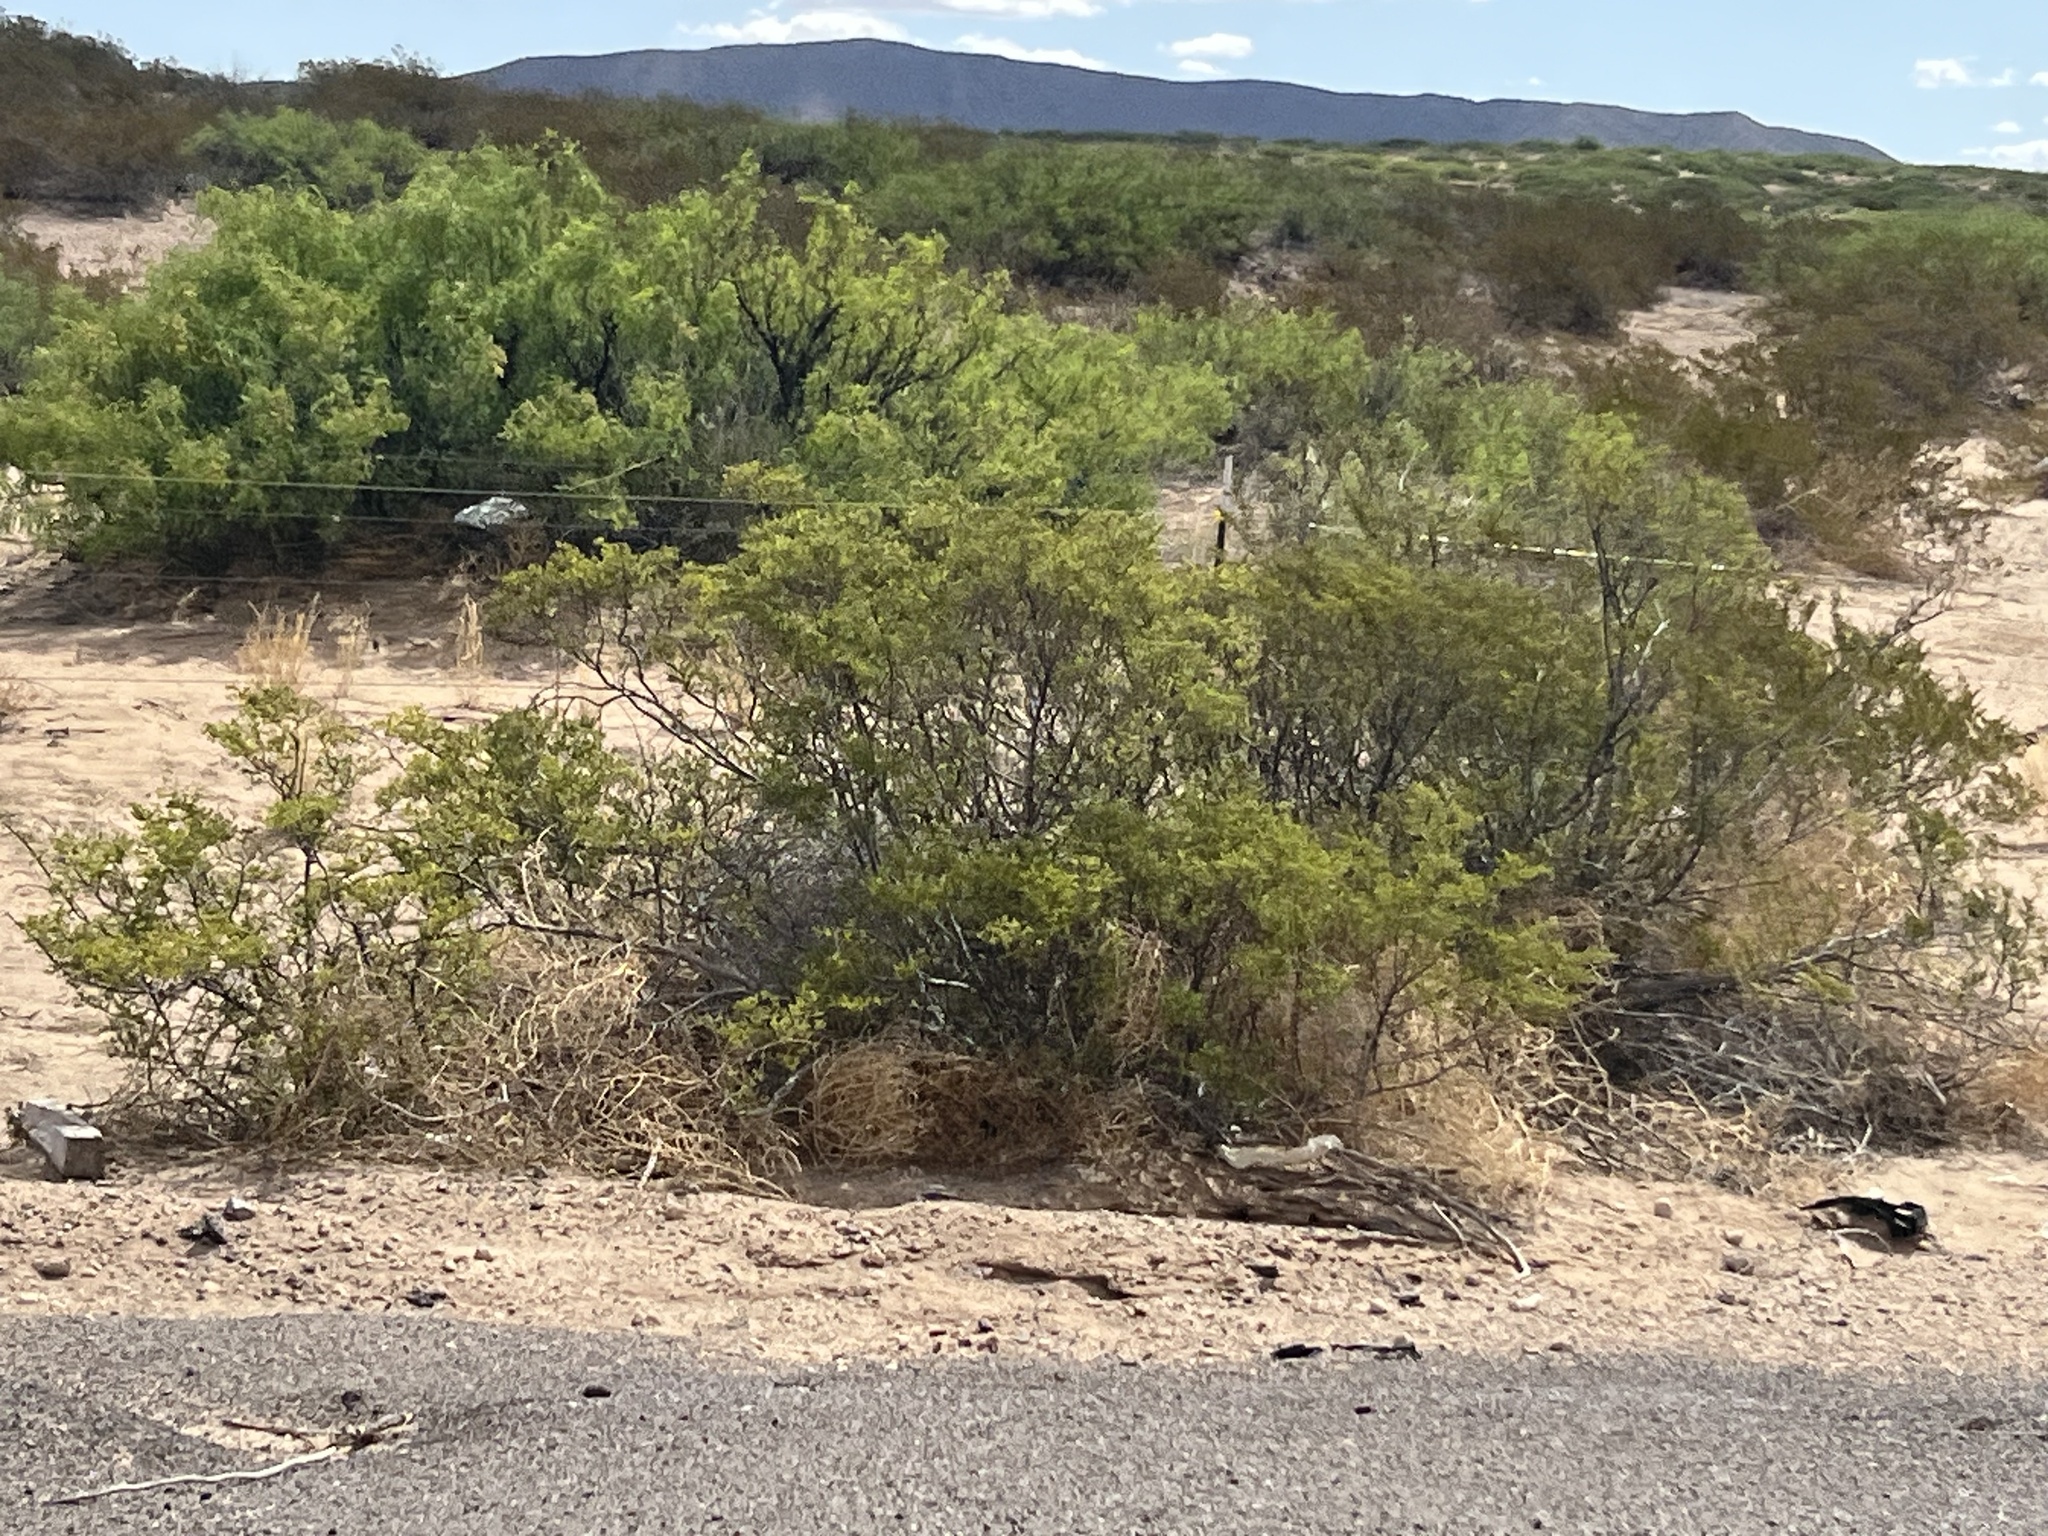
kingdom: Plantae
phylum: Tracheophyta
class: Magnoliopsida
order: Zygophyllales
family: Zygophyllaceae
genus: Larrea
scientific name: Larrea tridentata
